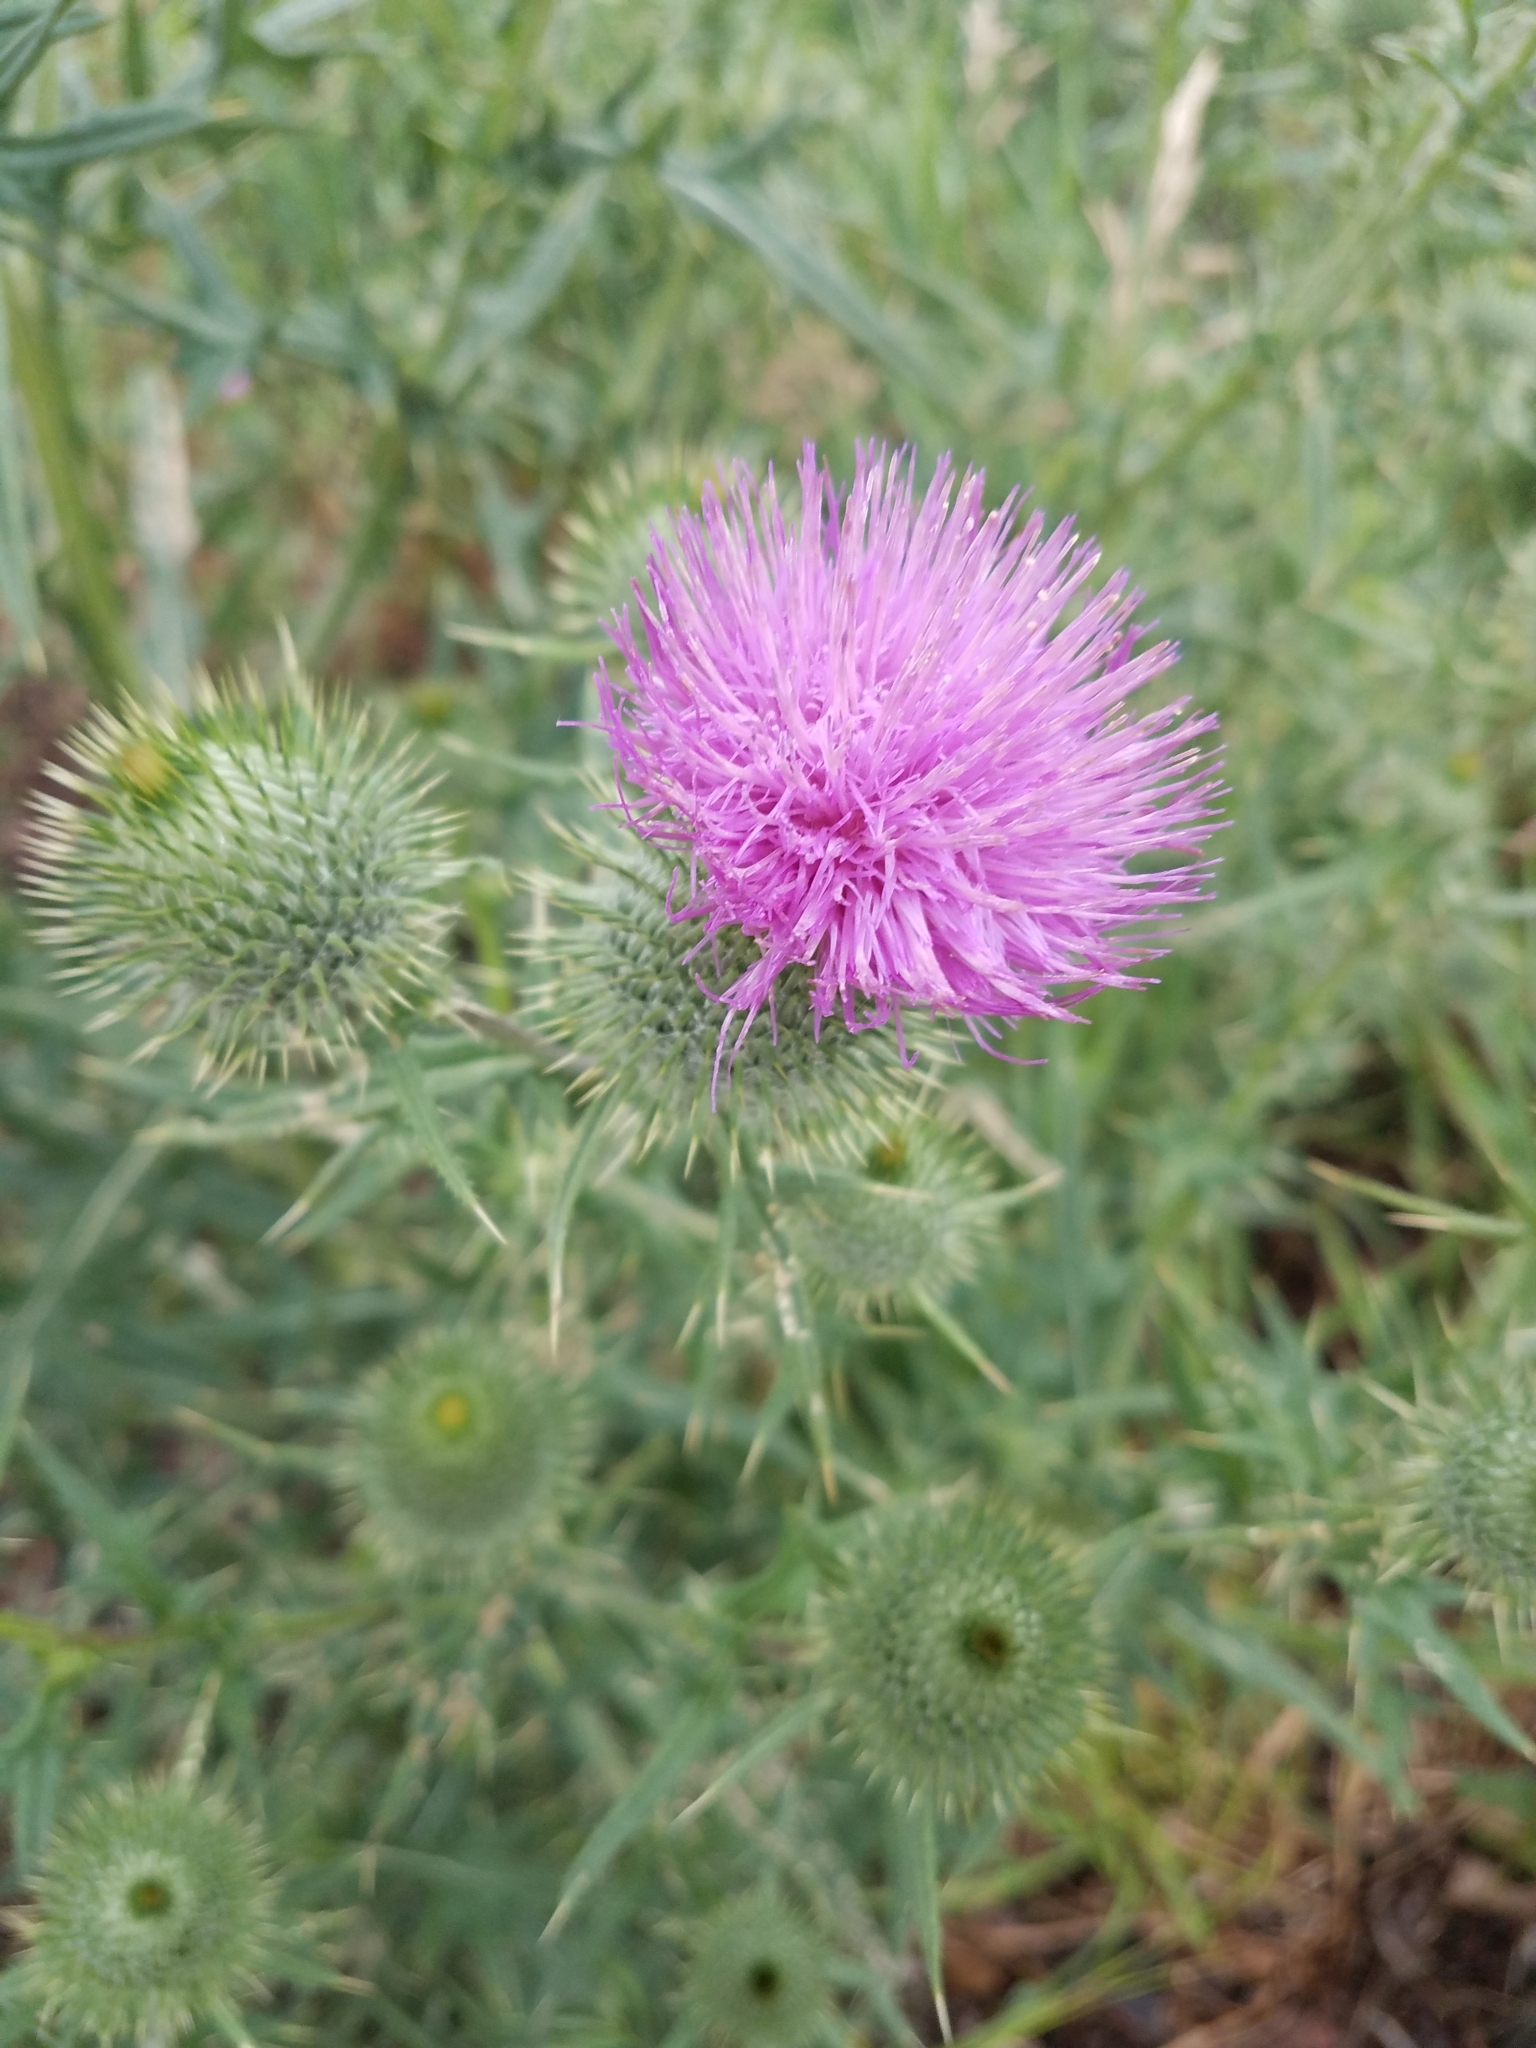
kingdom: Plantae
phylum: Tracheophyta
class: Magnoliopsida
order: Asterales
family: Asteraceae
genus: Cirsium
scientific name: Cirsium vulgare
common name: Bull thistle
